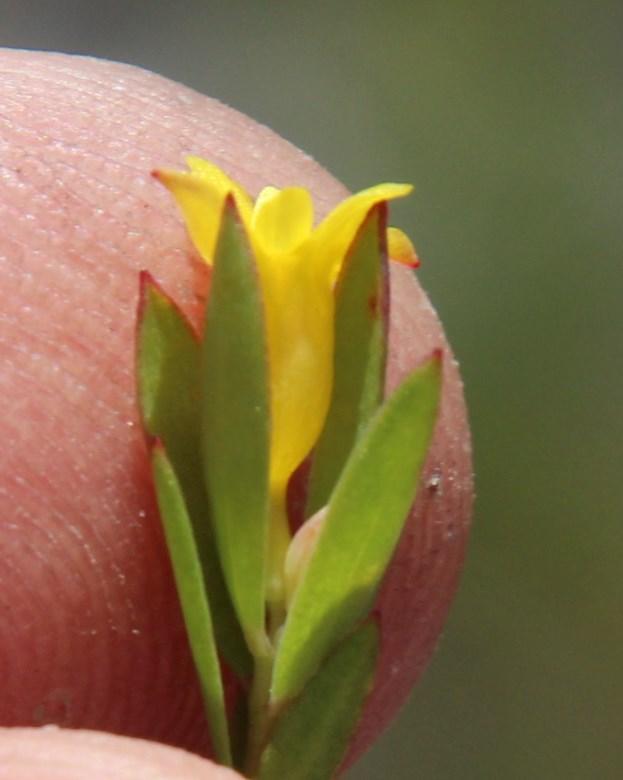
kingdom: Plantae
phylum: Tracheophyta
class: Magnoliopsida
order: Malvales
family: Thymelaeaceae
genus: Gnidia
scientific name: Gnidia juniperifolia
